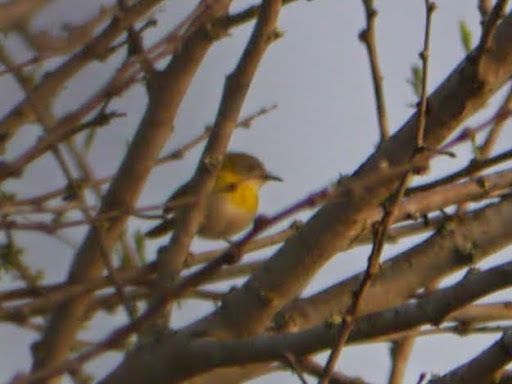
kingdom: Animalia
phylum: Chordata
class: Aves
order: Passeriformes
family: Cisticolidae
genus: Eremomela
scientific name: Eremomela icteropygialis
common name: Yellow-bellied eremomela
